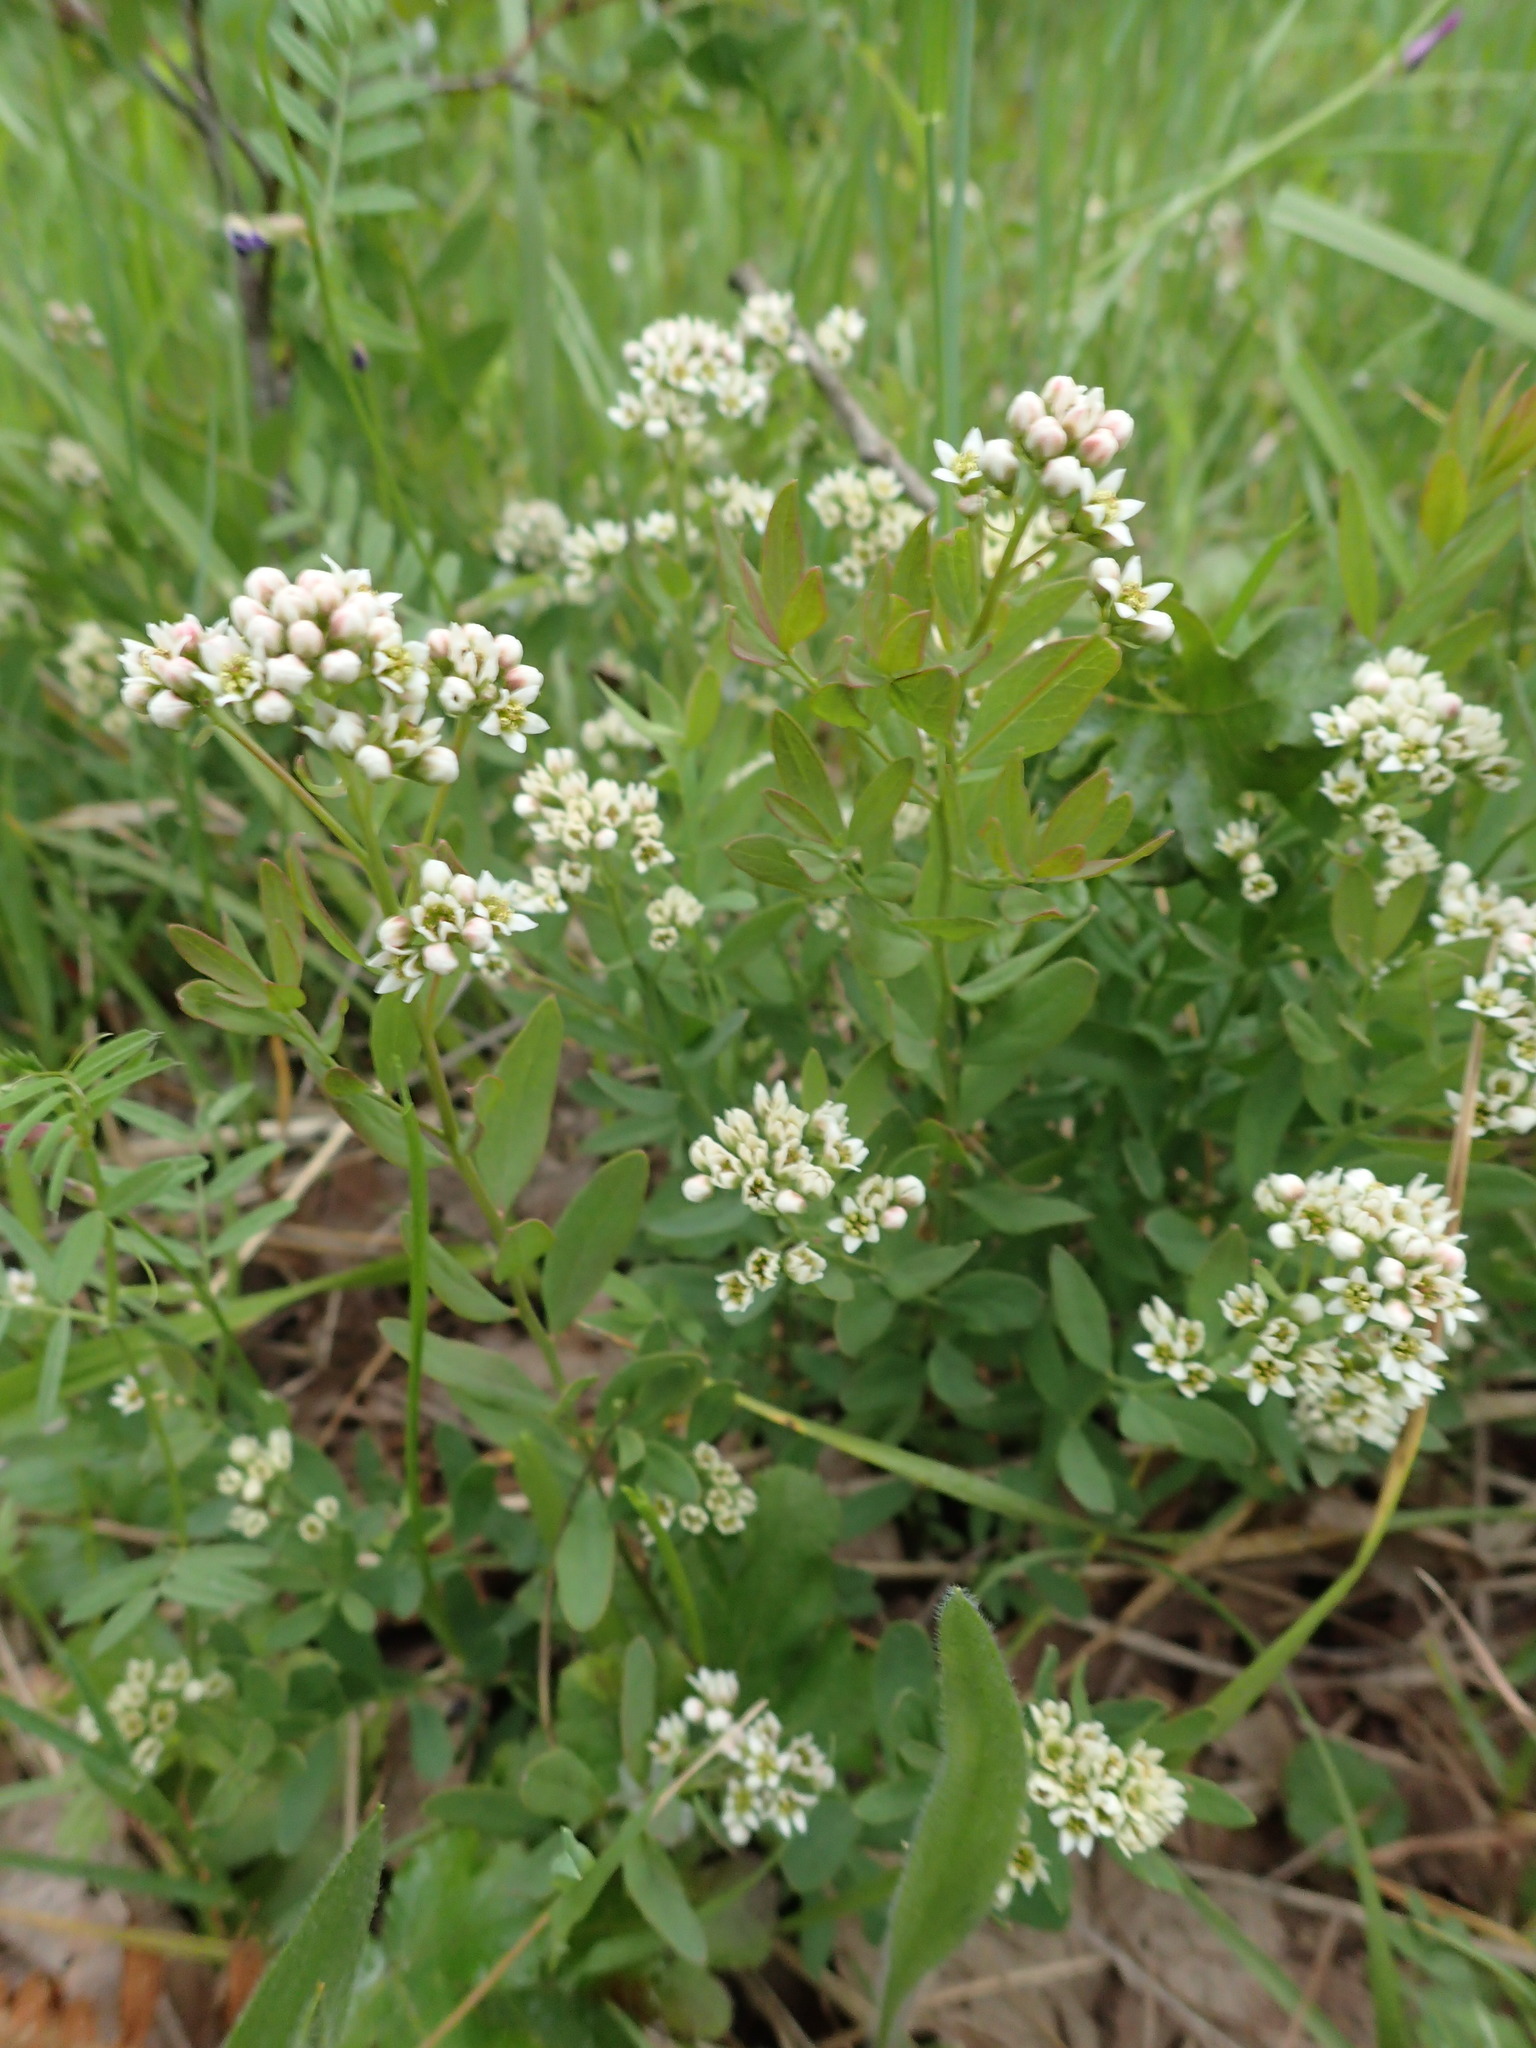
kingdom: Plantae
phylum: Tracheophyta
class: Magnoliopsida
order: Santalales
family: Comandraceae
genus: Comandra
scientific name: Comandra umbellata
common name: Bastard toadflax
